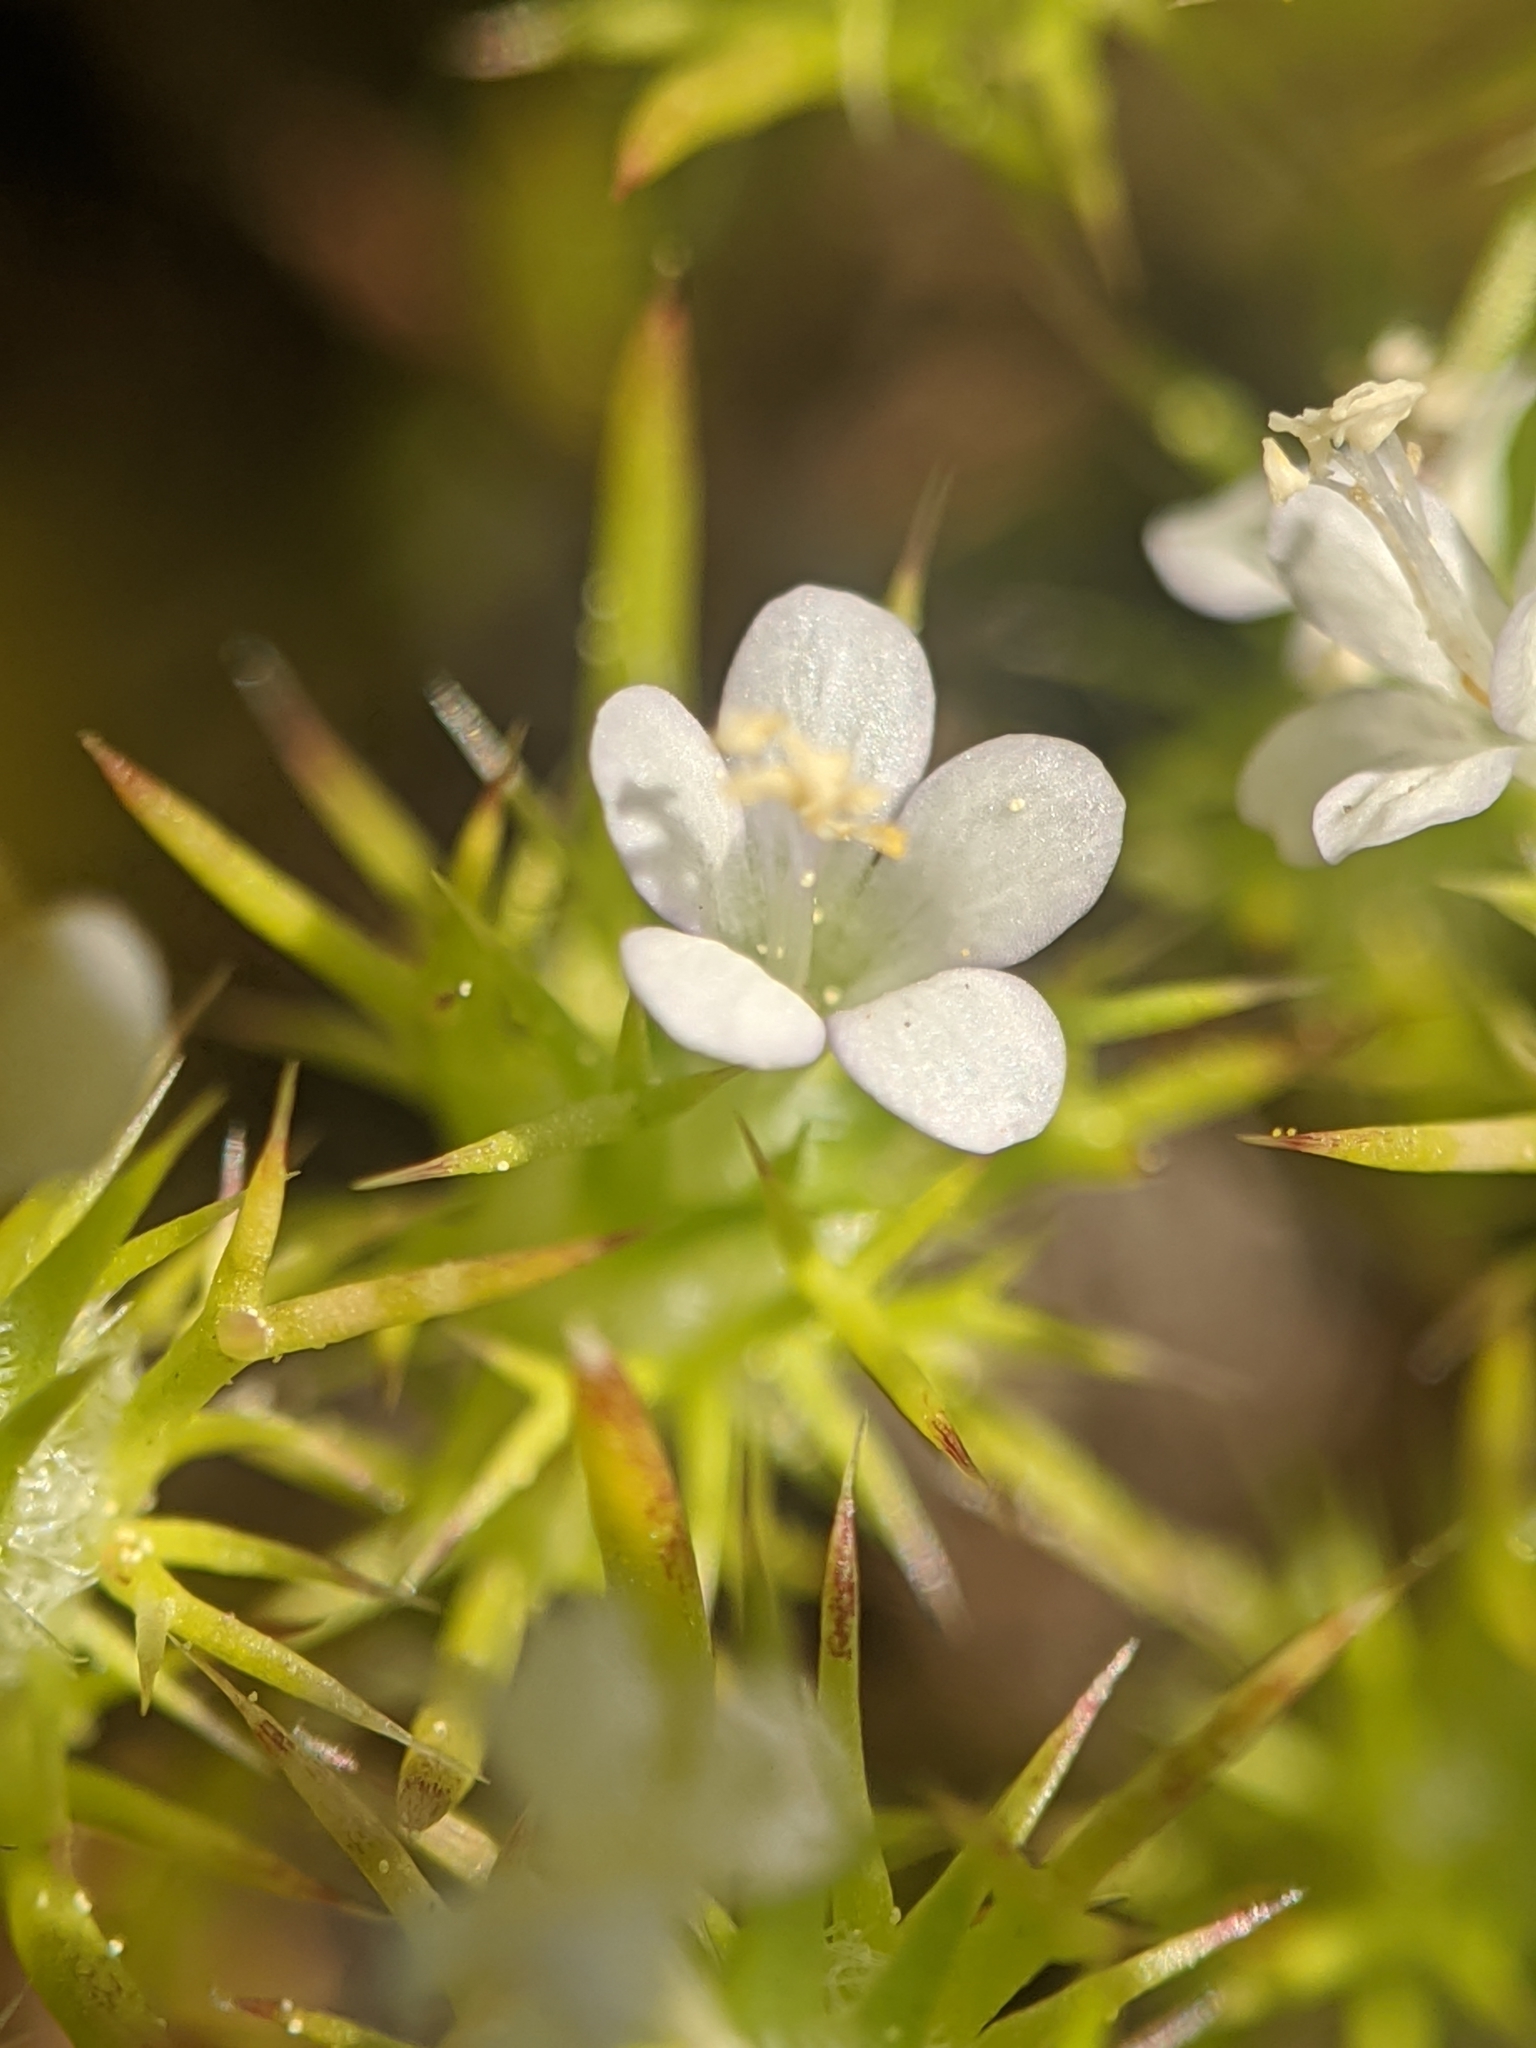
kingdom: Plantae
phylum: Tracheophyta
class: Magnoliopsida
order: Ericales
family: Polemoniaceae
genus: Navarretia
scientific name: Navarretia intertexta
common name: Needle-leaved navarretia
